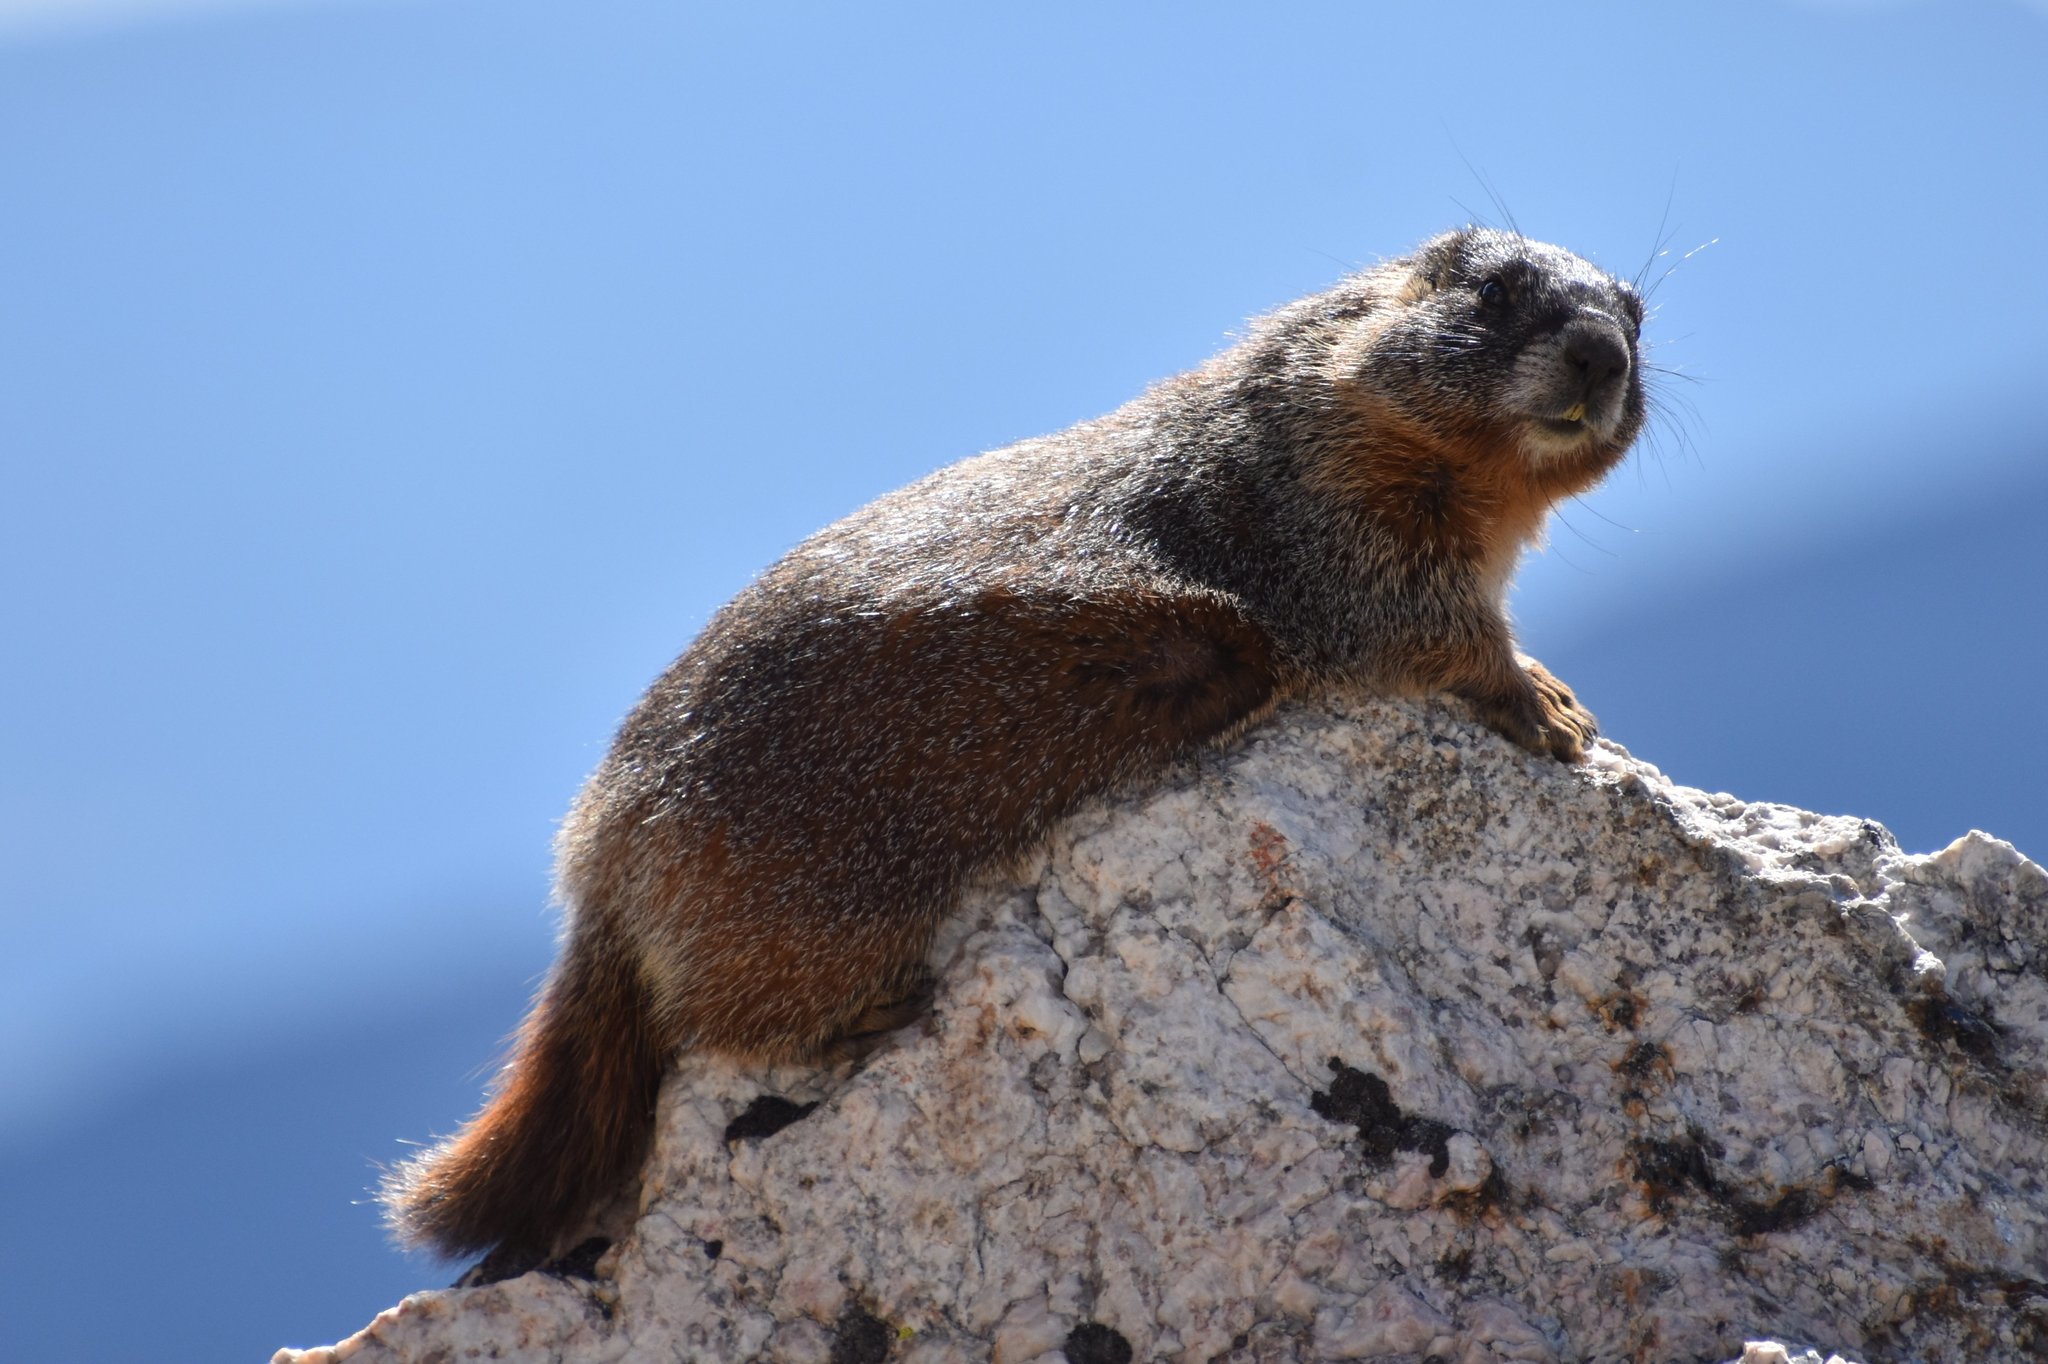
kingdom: Animalia
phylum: Chordata
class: Mammalia
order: Rodentia
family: Sciuridae
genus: Marmota
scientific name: Marmota flaviventris
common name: Yellow-bellied marmot
